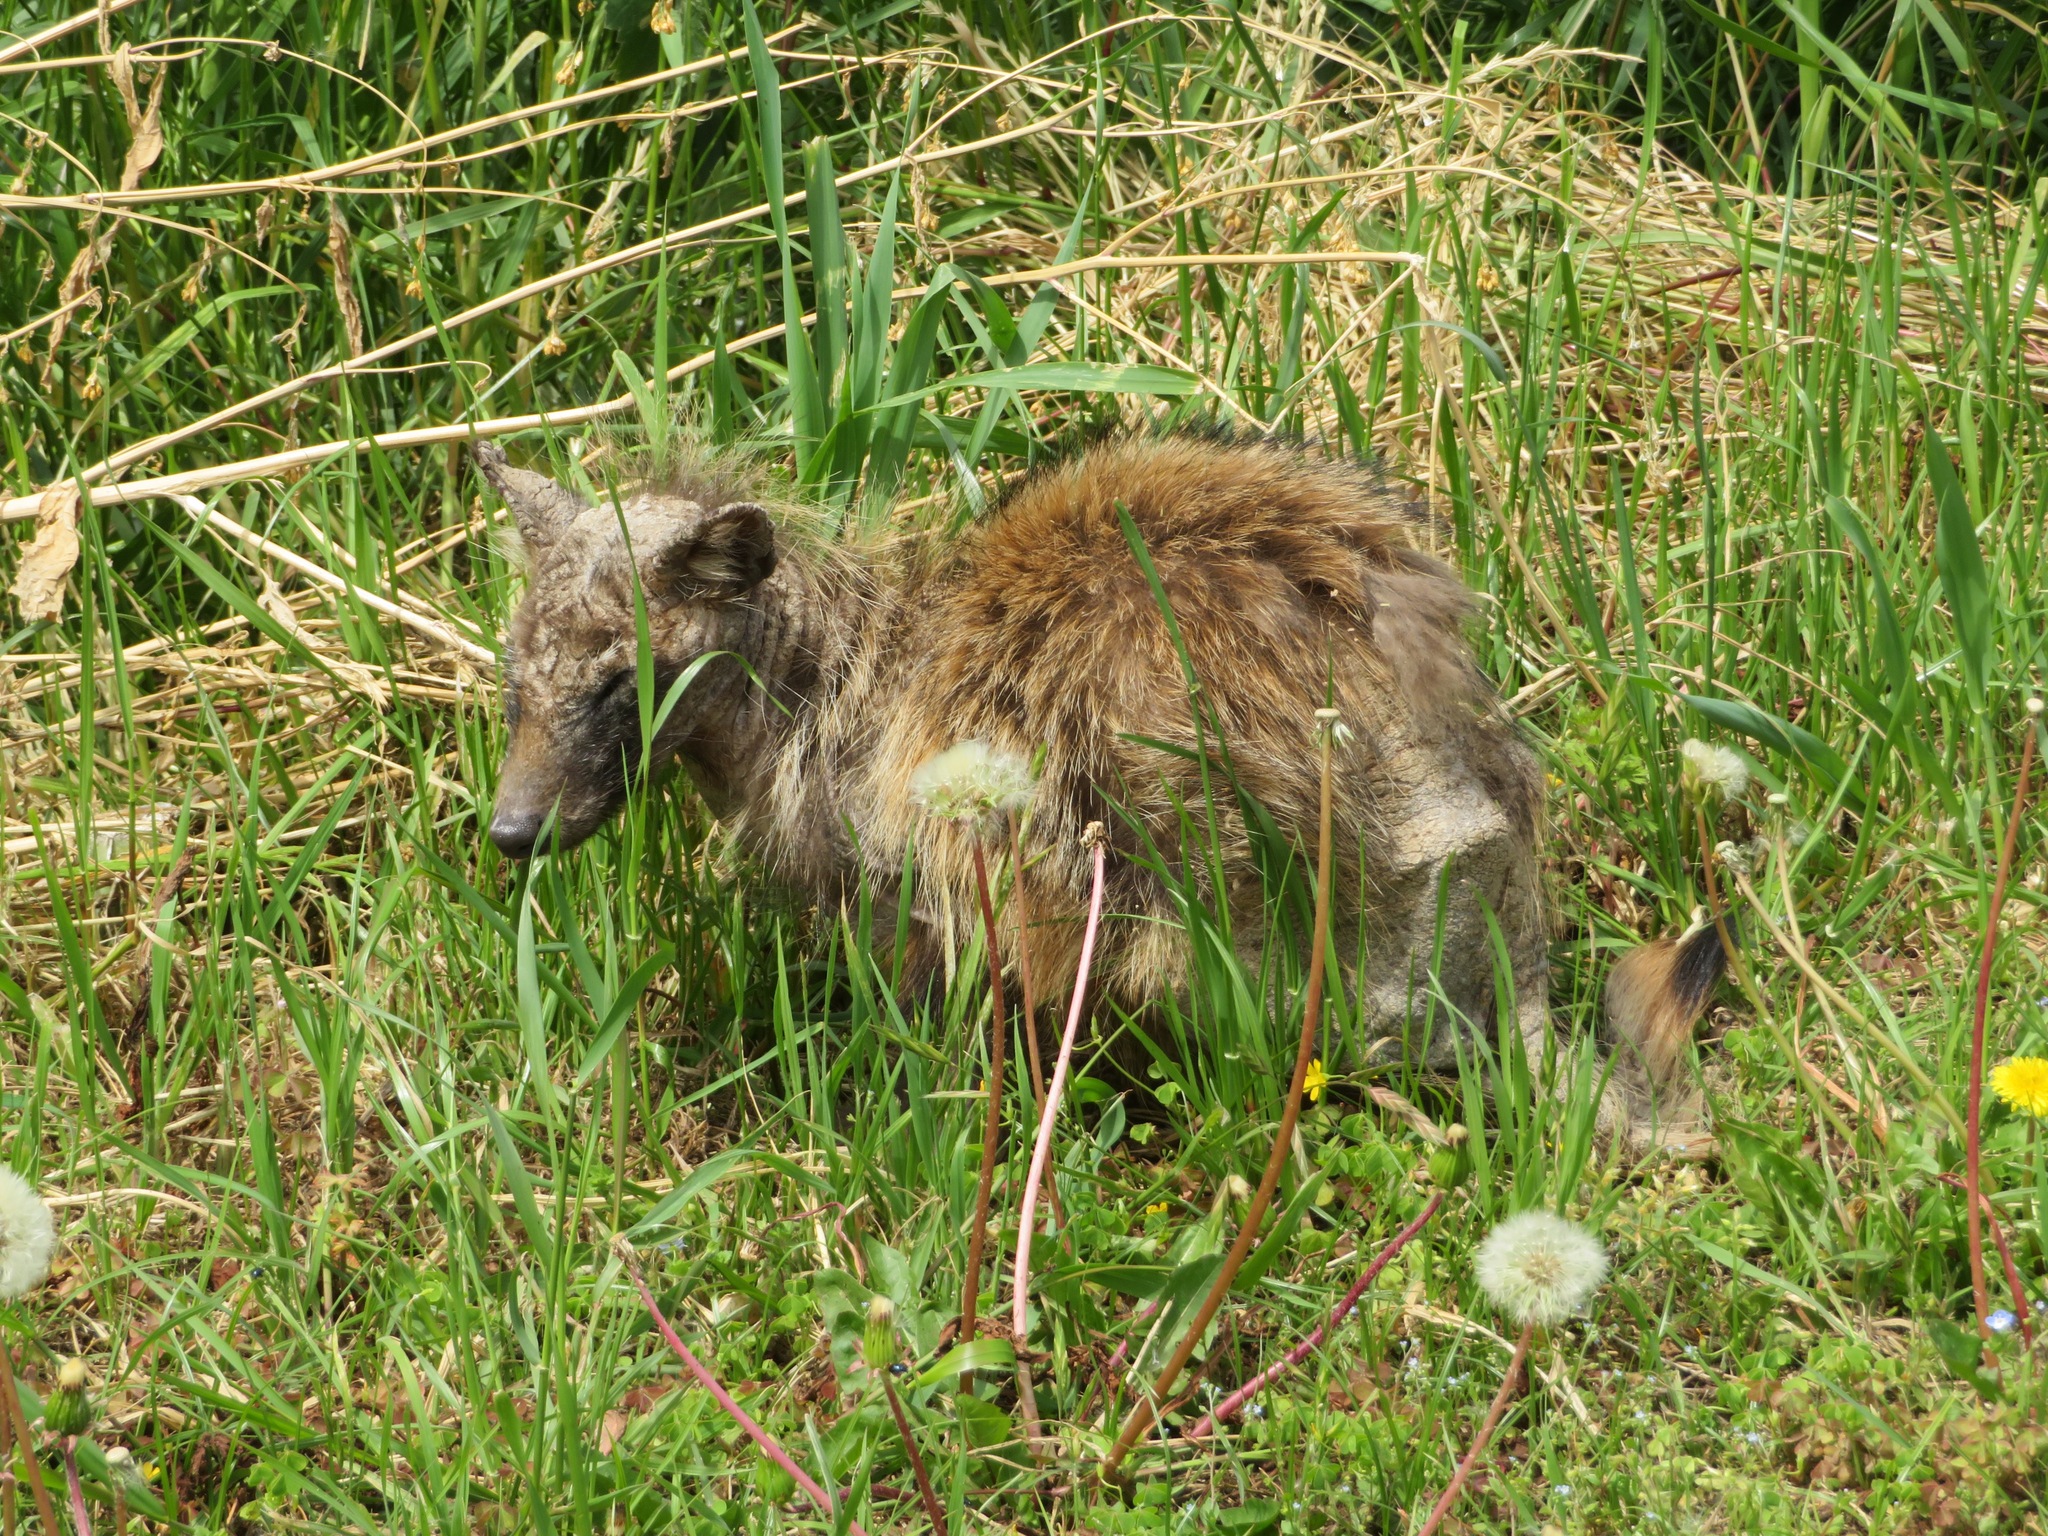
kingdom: Animalia
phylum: Chordata
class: Mammalia
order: Carnivora
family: Canidae
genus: Nyctereutes
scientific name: Nyctereutes
